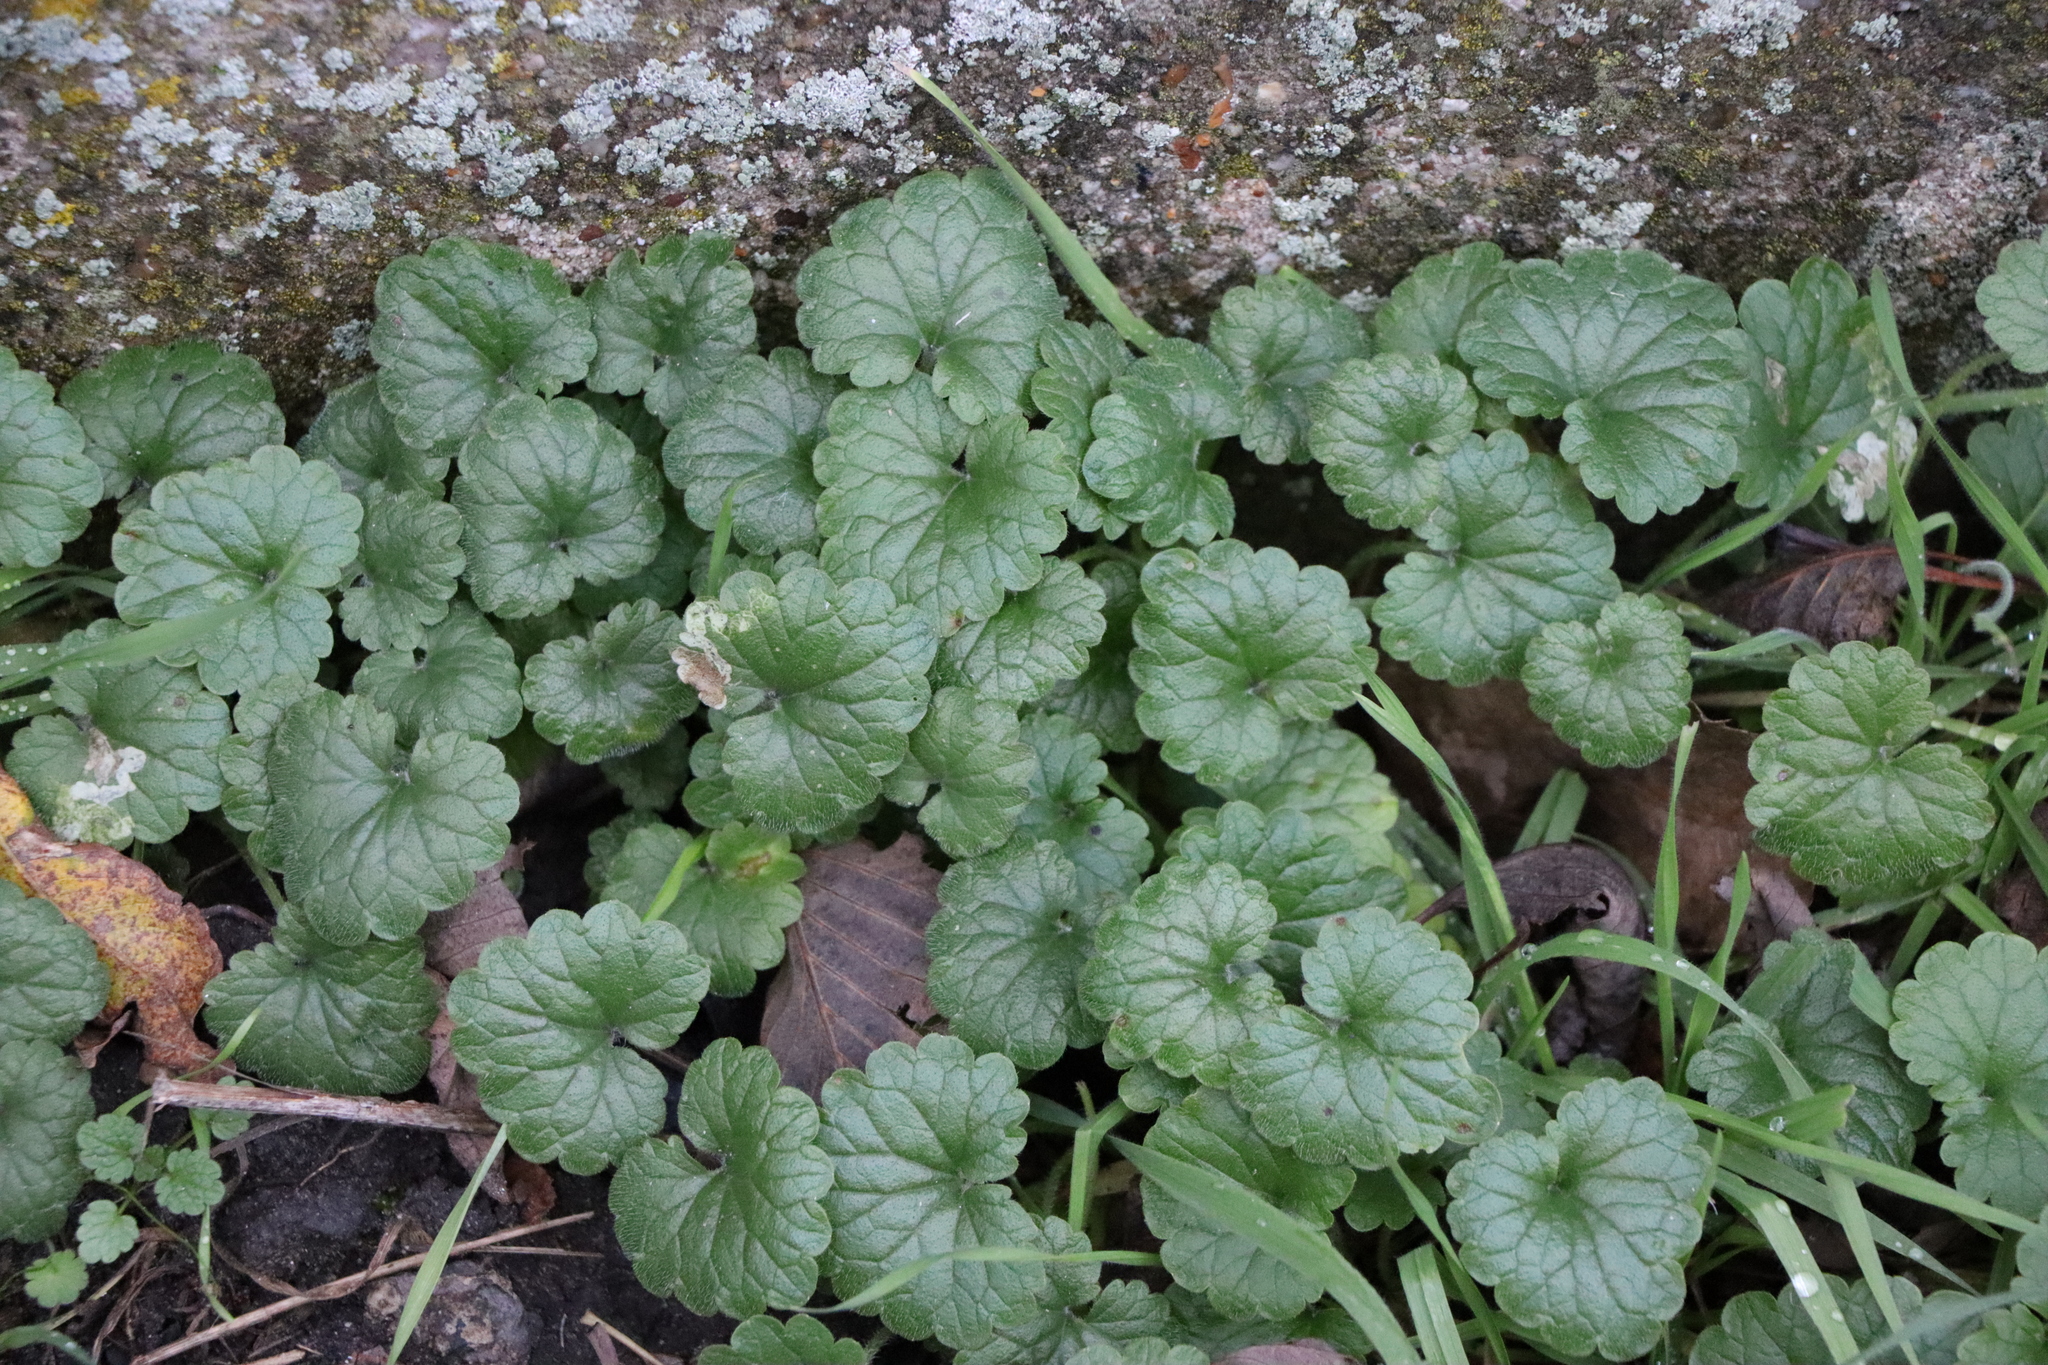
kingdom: Plantae
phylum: Tracheophyta
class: Magnoliopsida
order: Lamiales
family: Lamiaceae
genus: Glechoma
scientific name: Glechoma hederacea
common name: Ground ivy
